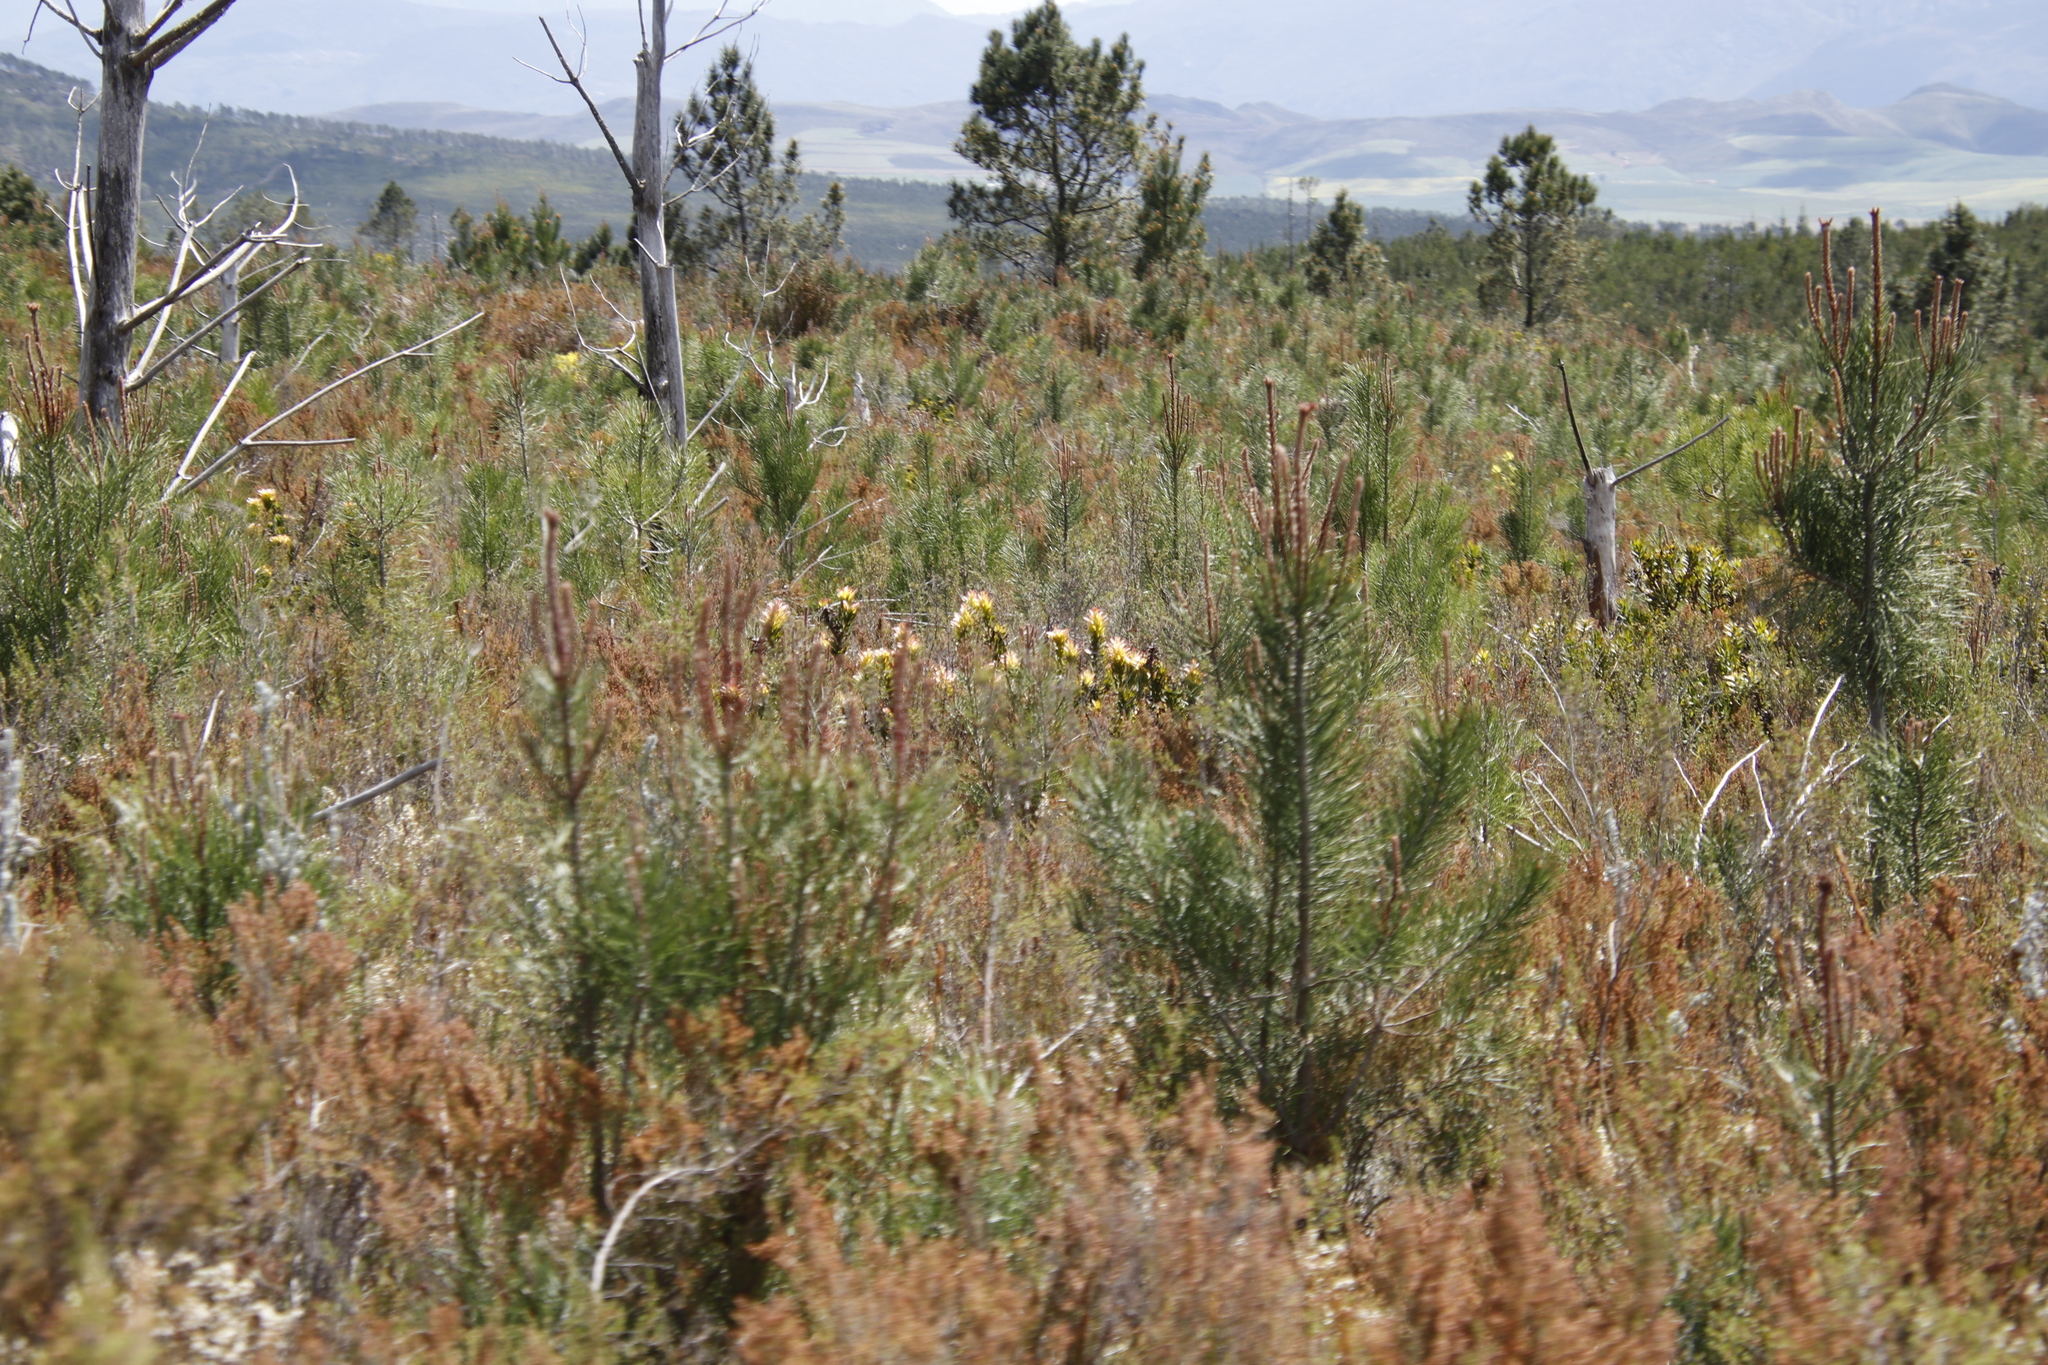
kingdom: Plantae
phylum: Tracheophyta
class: Magnoliopsida
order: Proteales
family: Proteaceae
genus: Mimetes
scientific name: Mimetes cucullatus
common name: Common pagoda
